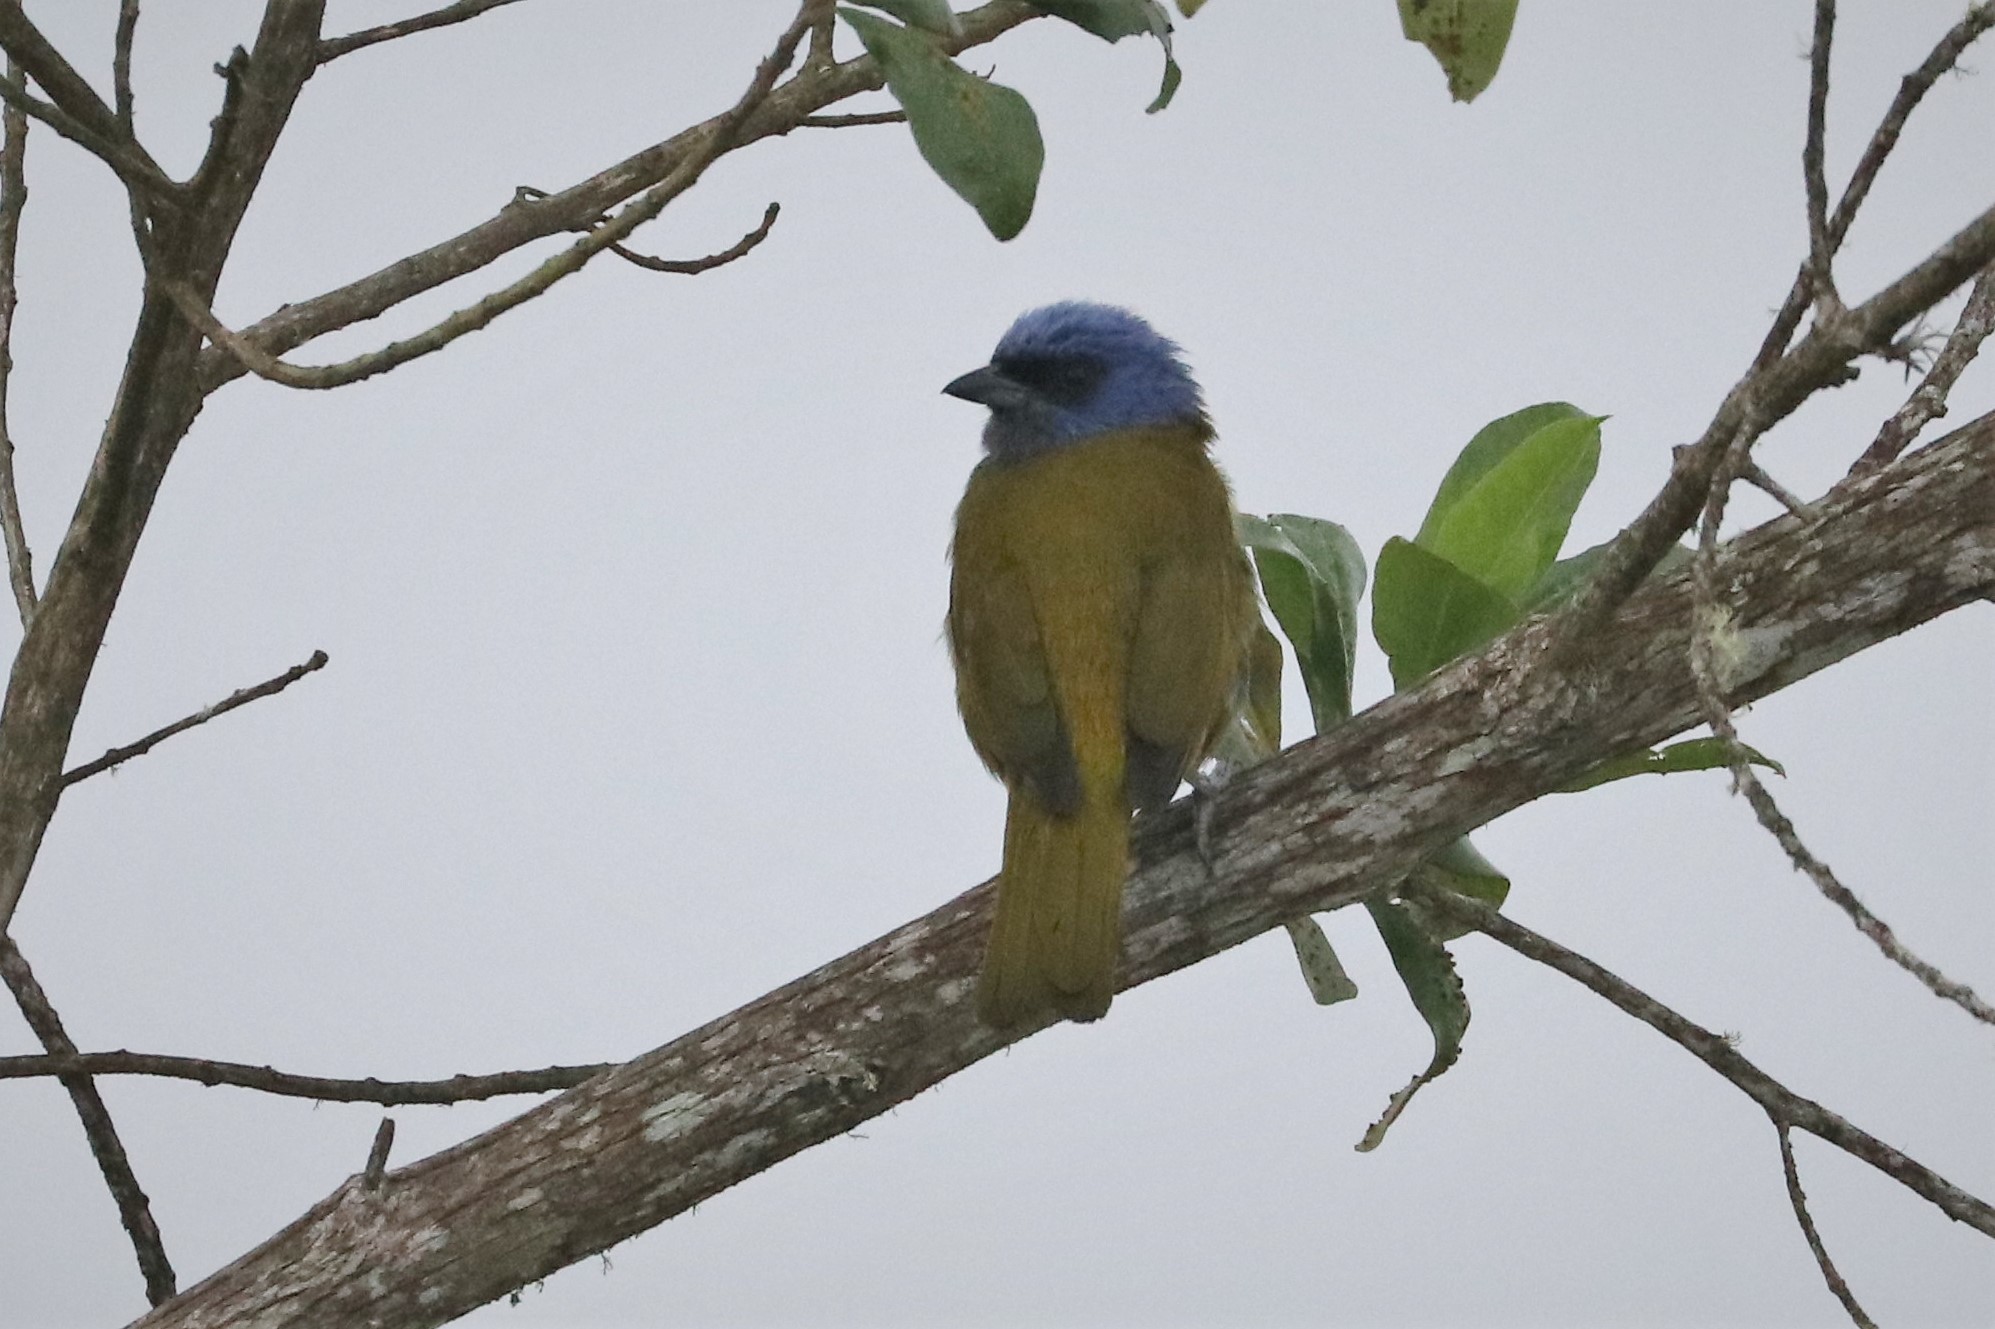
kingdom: Animalia
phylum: Chordata
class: Aves
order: Passeriformes
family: Thraupidae
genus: Sporathraupis
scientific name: Sporathraupis cyanocephala
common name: Blue-capped tanager
